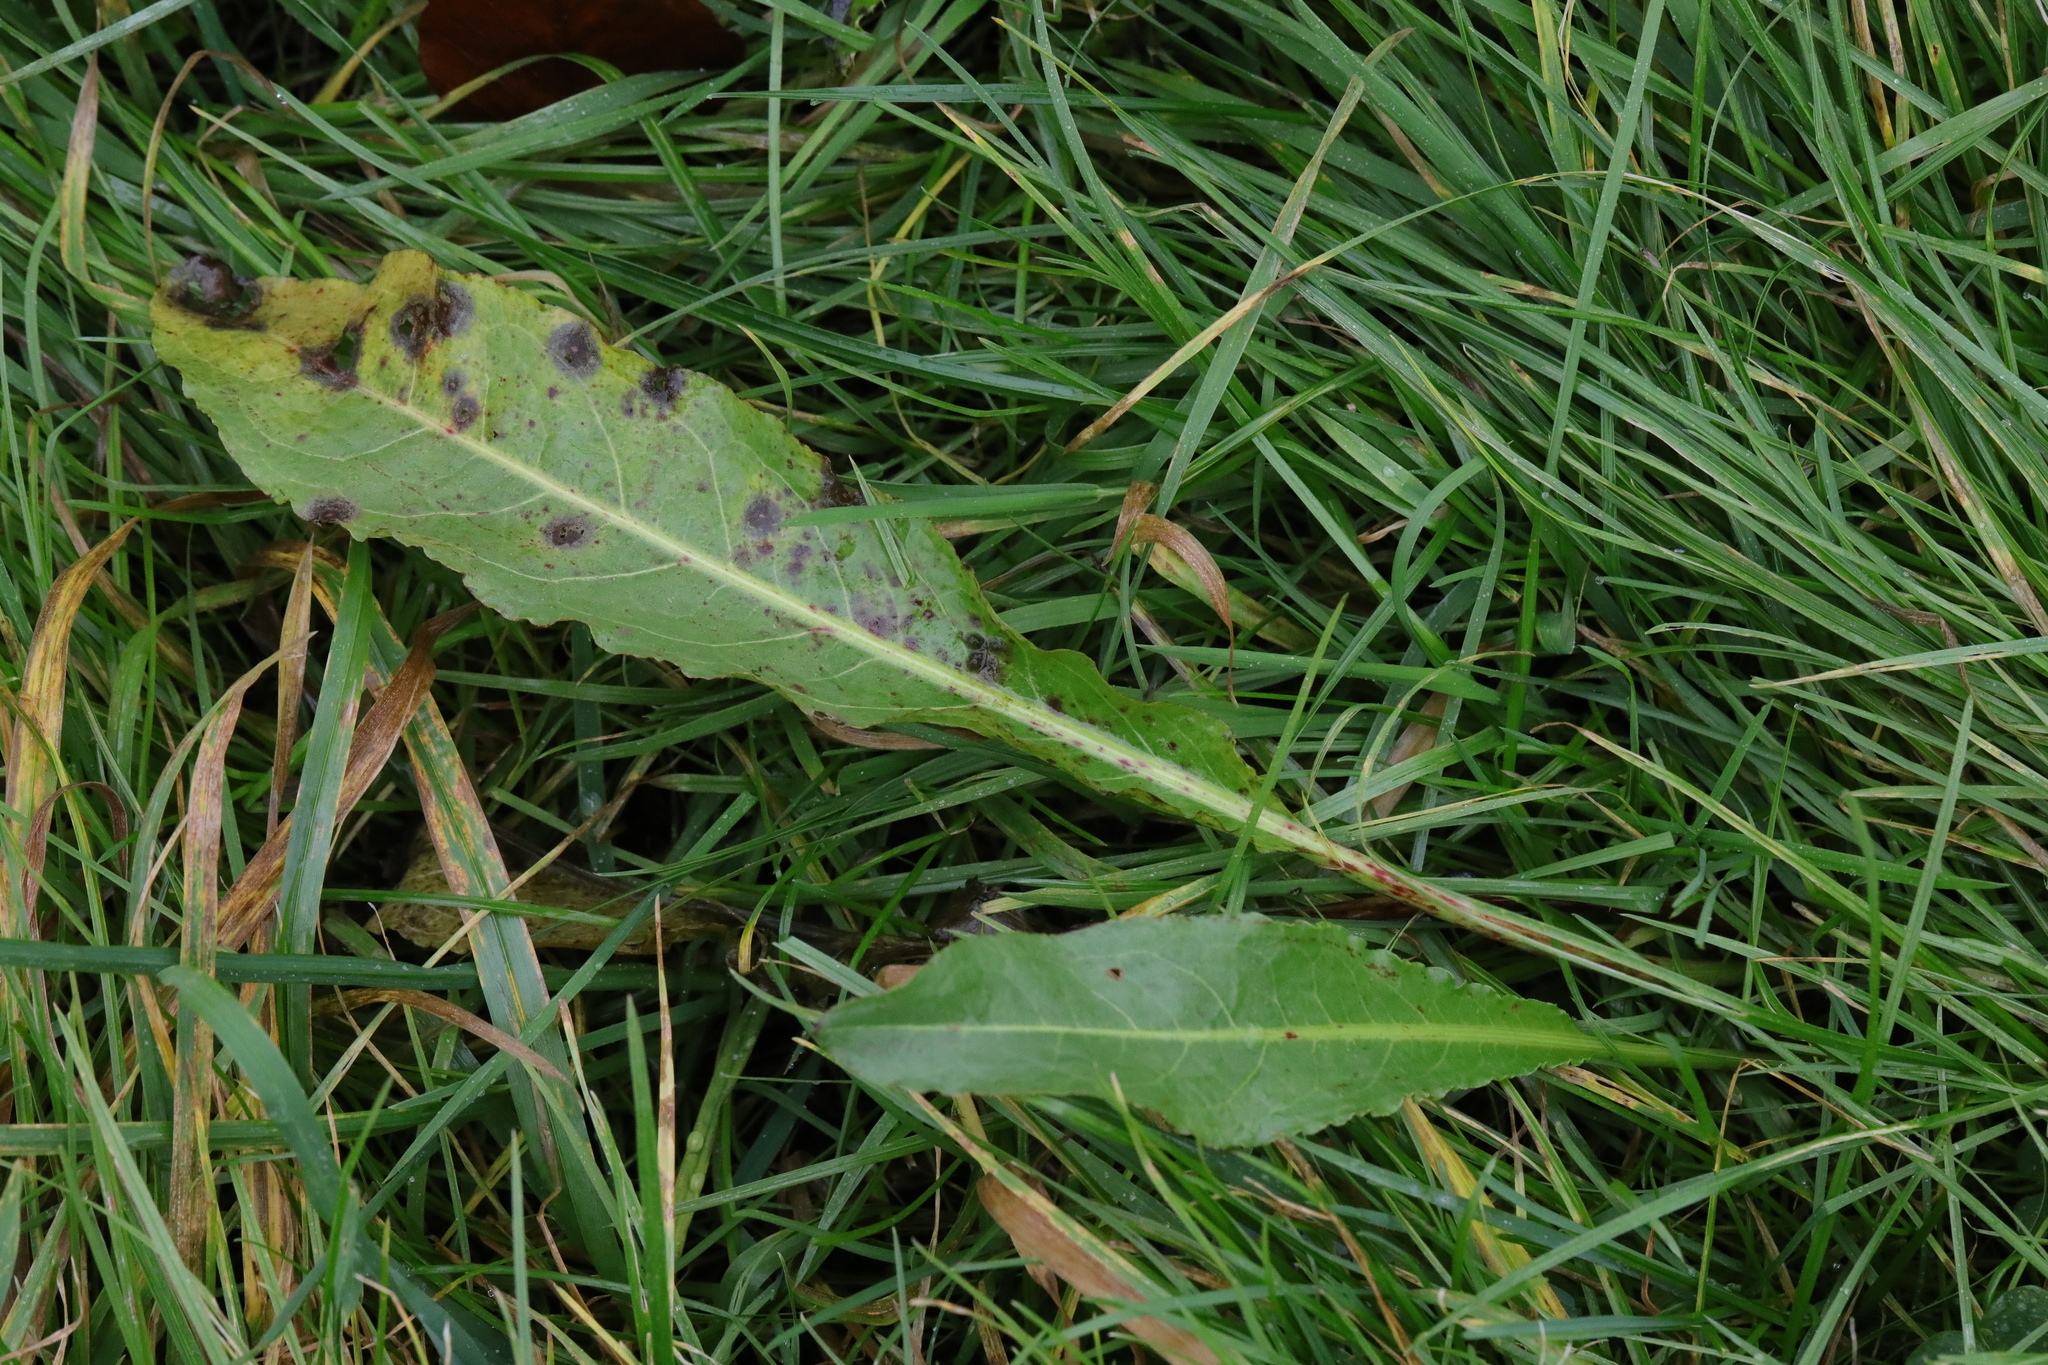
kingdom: Plantae
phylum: Tracheophyta
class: Magnoliopsida
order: Caryophyllales
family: Polygonaceae
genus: Rumex
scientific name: Rumex crispus
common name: Curled dock
